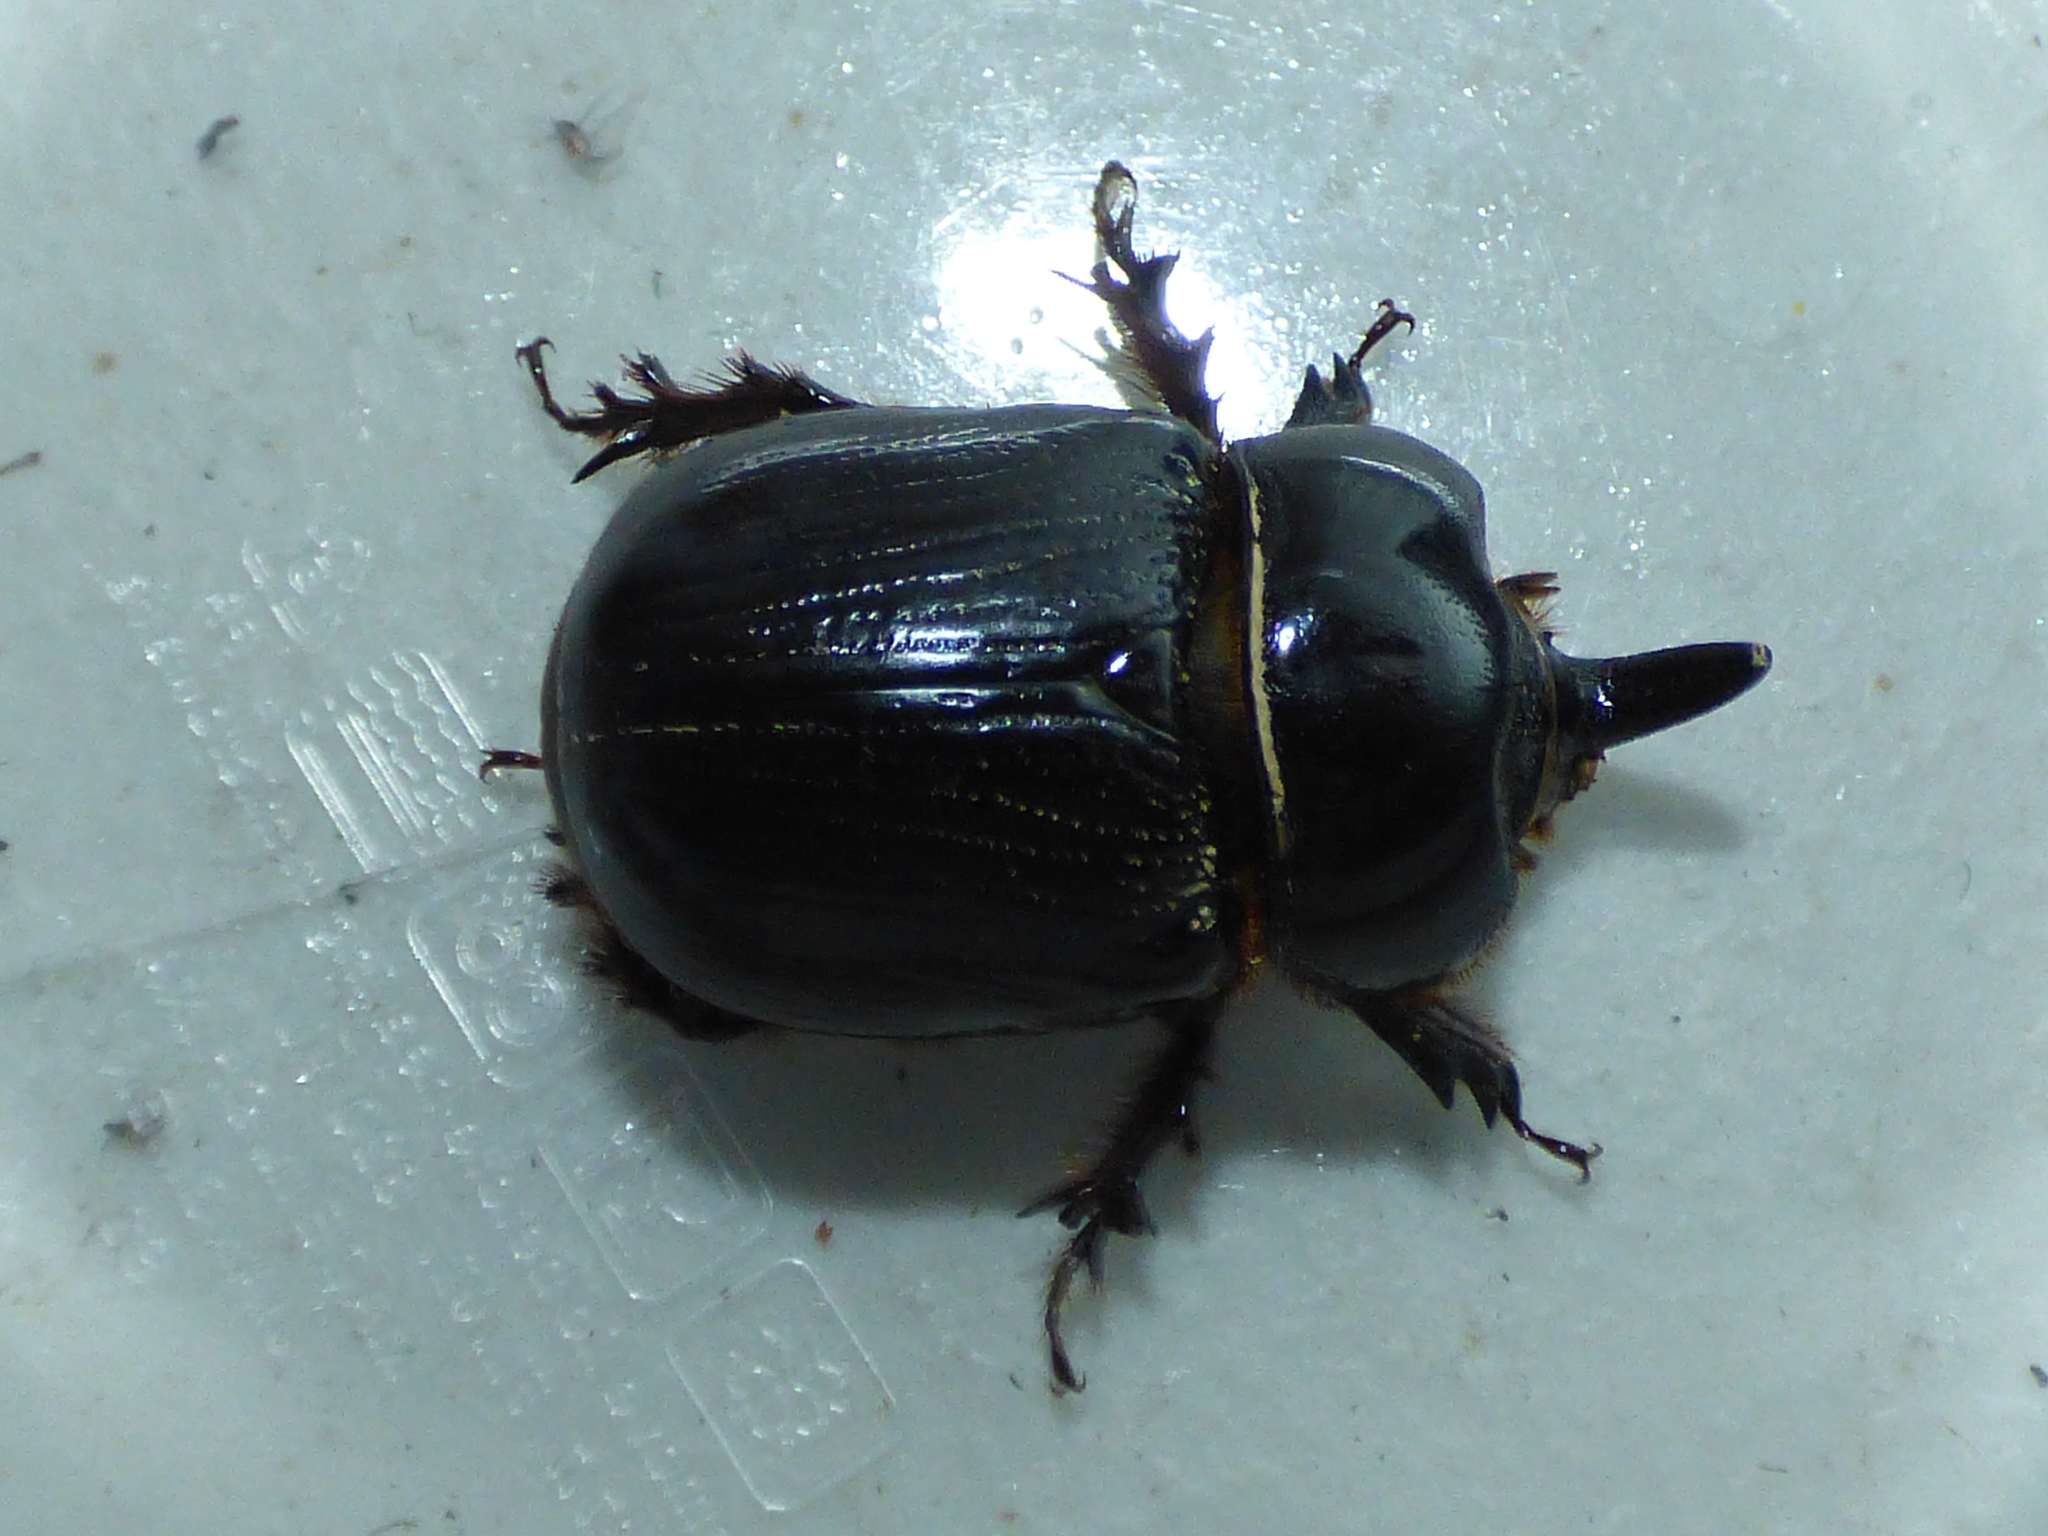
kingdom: Animalia
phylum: Arthropoda
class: Insecta
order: Coleoptera
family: Scarabaeidae
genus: Xyloryctes
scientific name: Xyloryctes jamaicensis
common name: Eastern rhinoceros beetle
